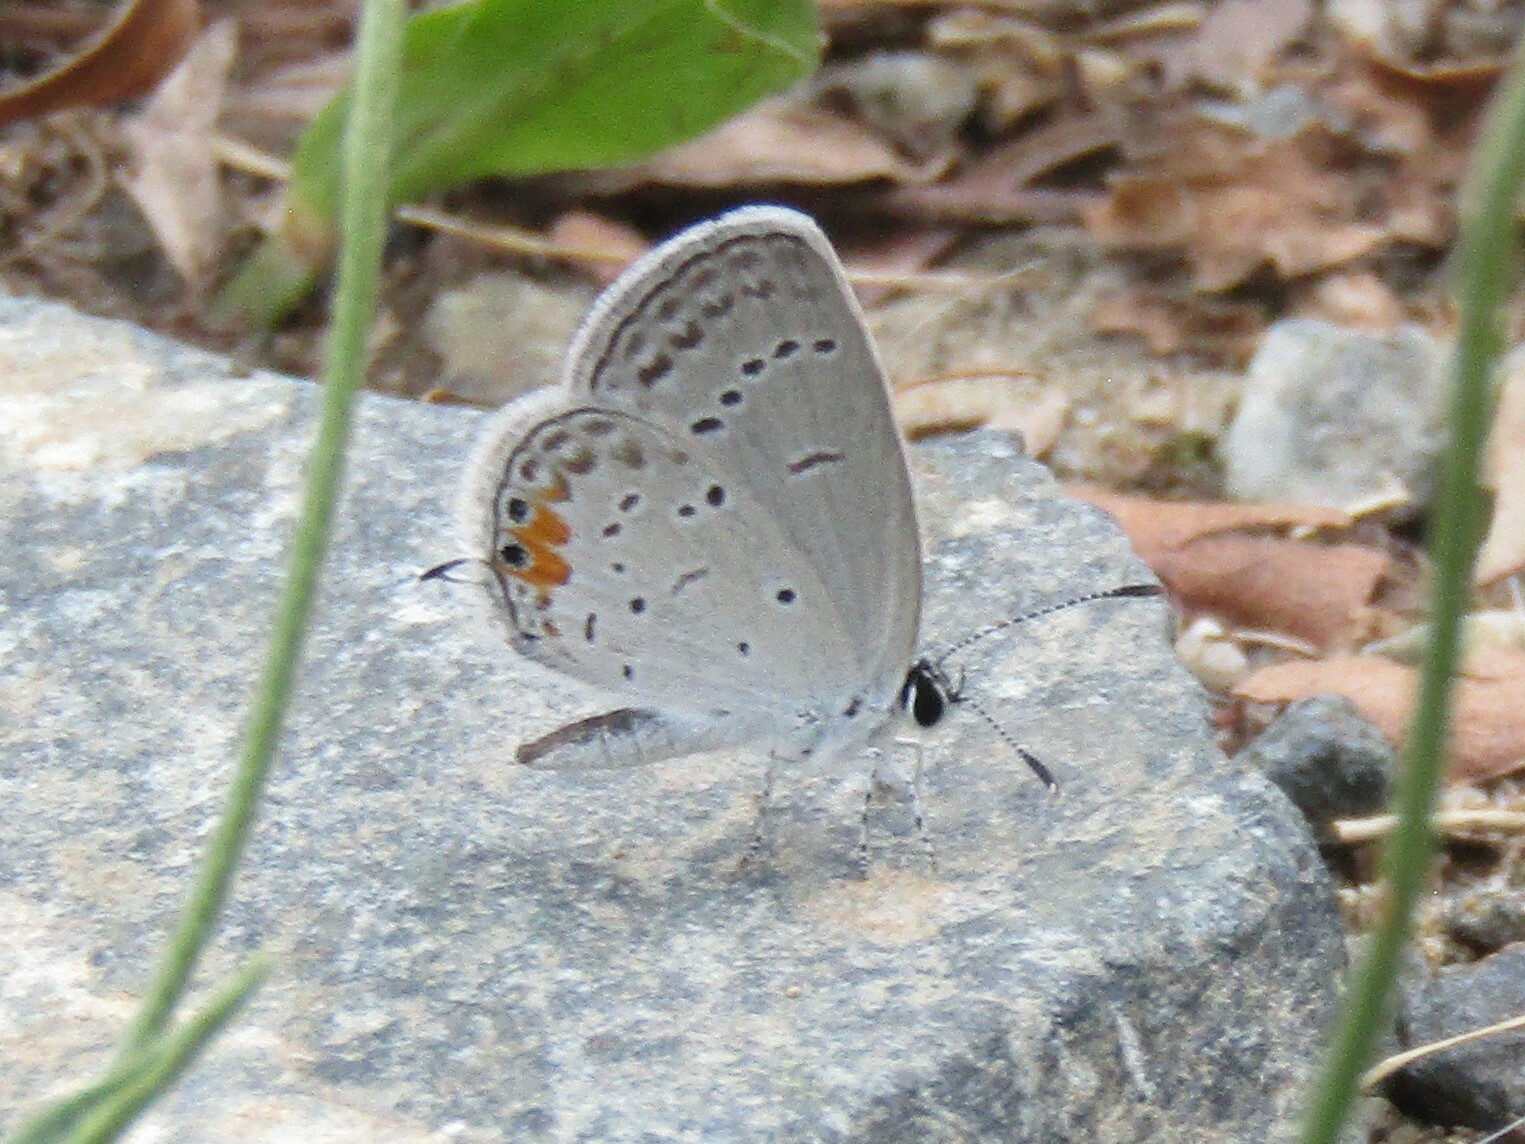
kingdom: Animalia
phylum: Arthropoda
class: Insecta
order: Lepidoptera
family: Lycaenidae
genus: Elkalyce
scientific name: Elkalyce comyntas
